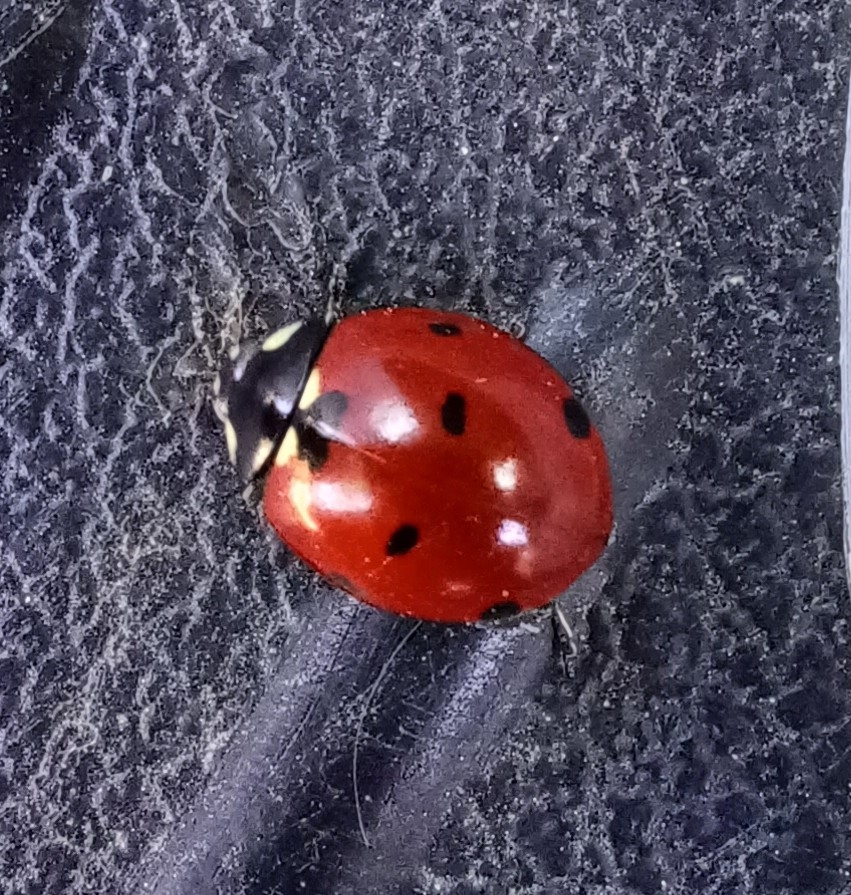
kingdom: Animalia
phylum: Arthropoda
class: Insecta
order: Coleoptera
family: Coccinellidae
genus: Coccinella
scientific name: Coccinella septempunctata
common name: Sevenspotted lady beetle
